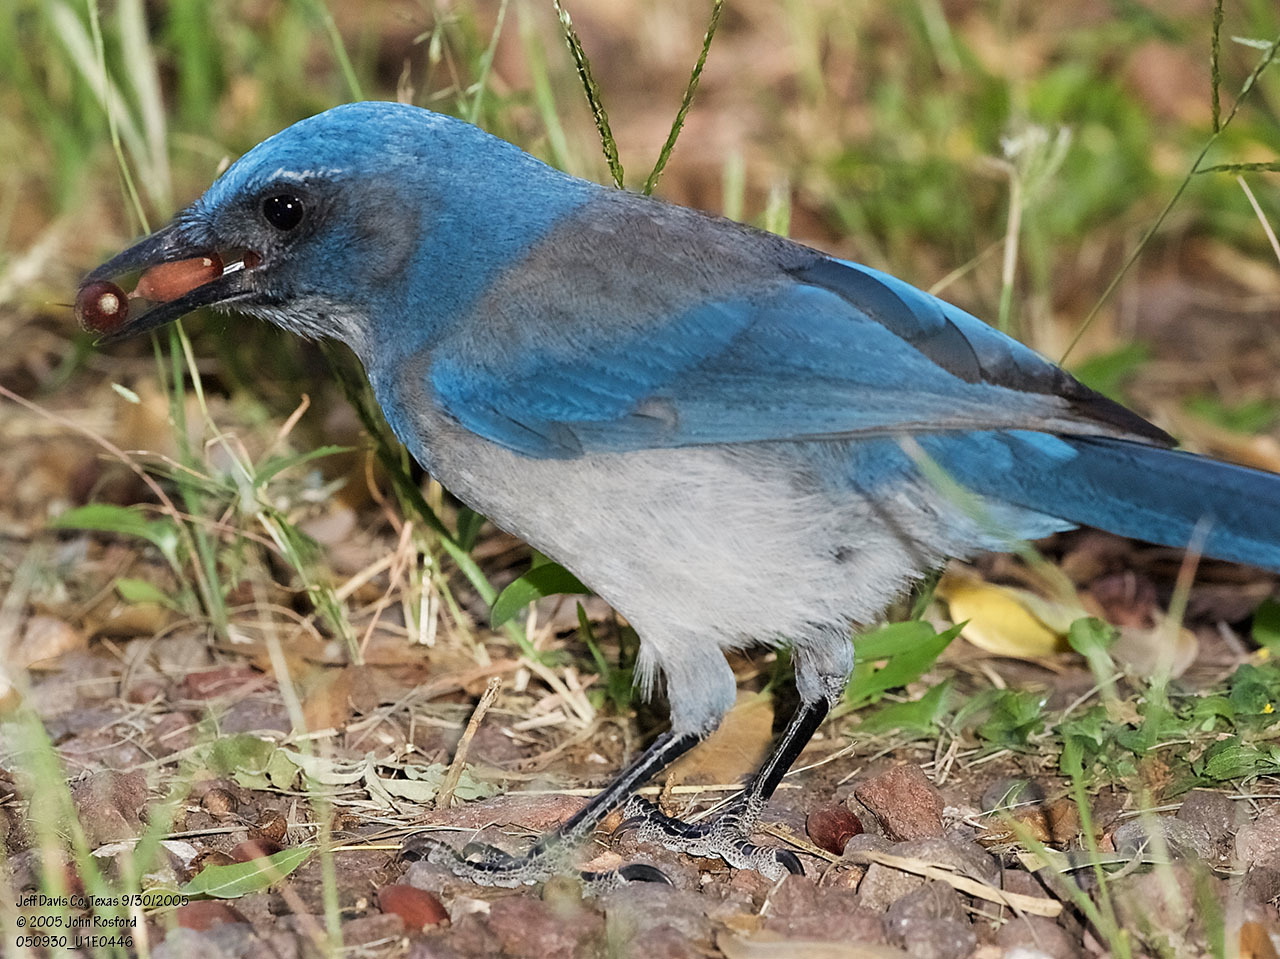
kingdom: Animalia
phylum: Chordata
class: Aves
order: Passeriformes
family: Corvidae
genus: Aphelocoma
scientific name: Aphelocoma woodhouseii
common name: Woodhouse's scrub-jay
